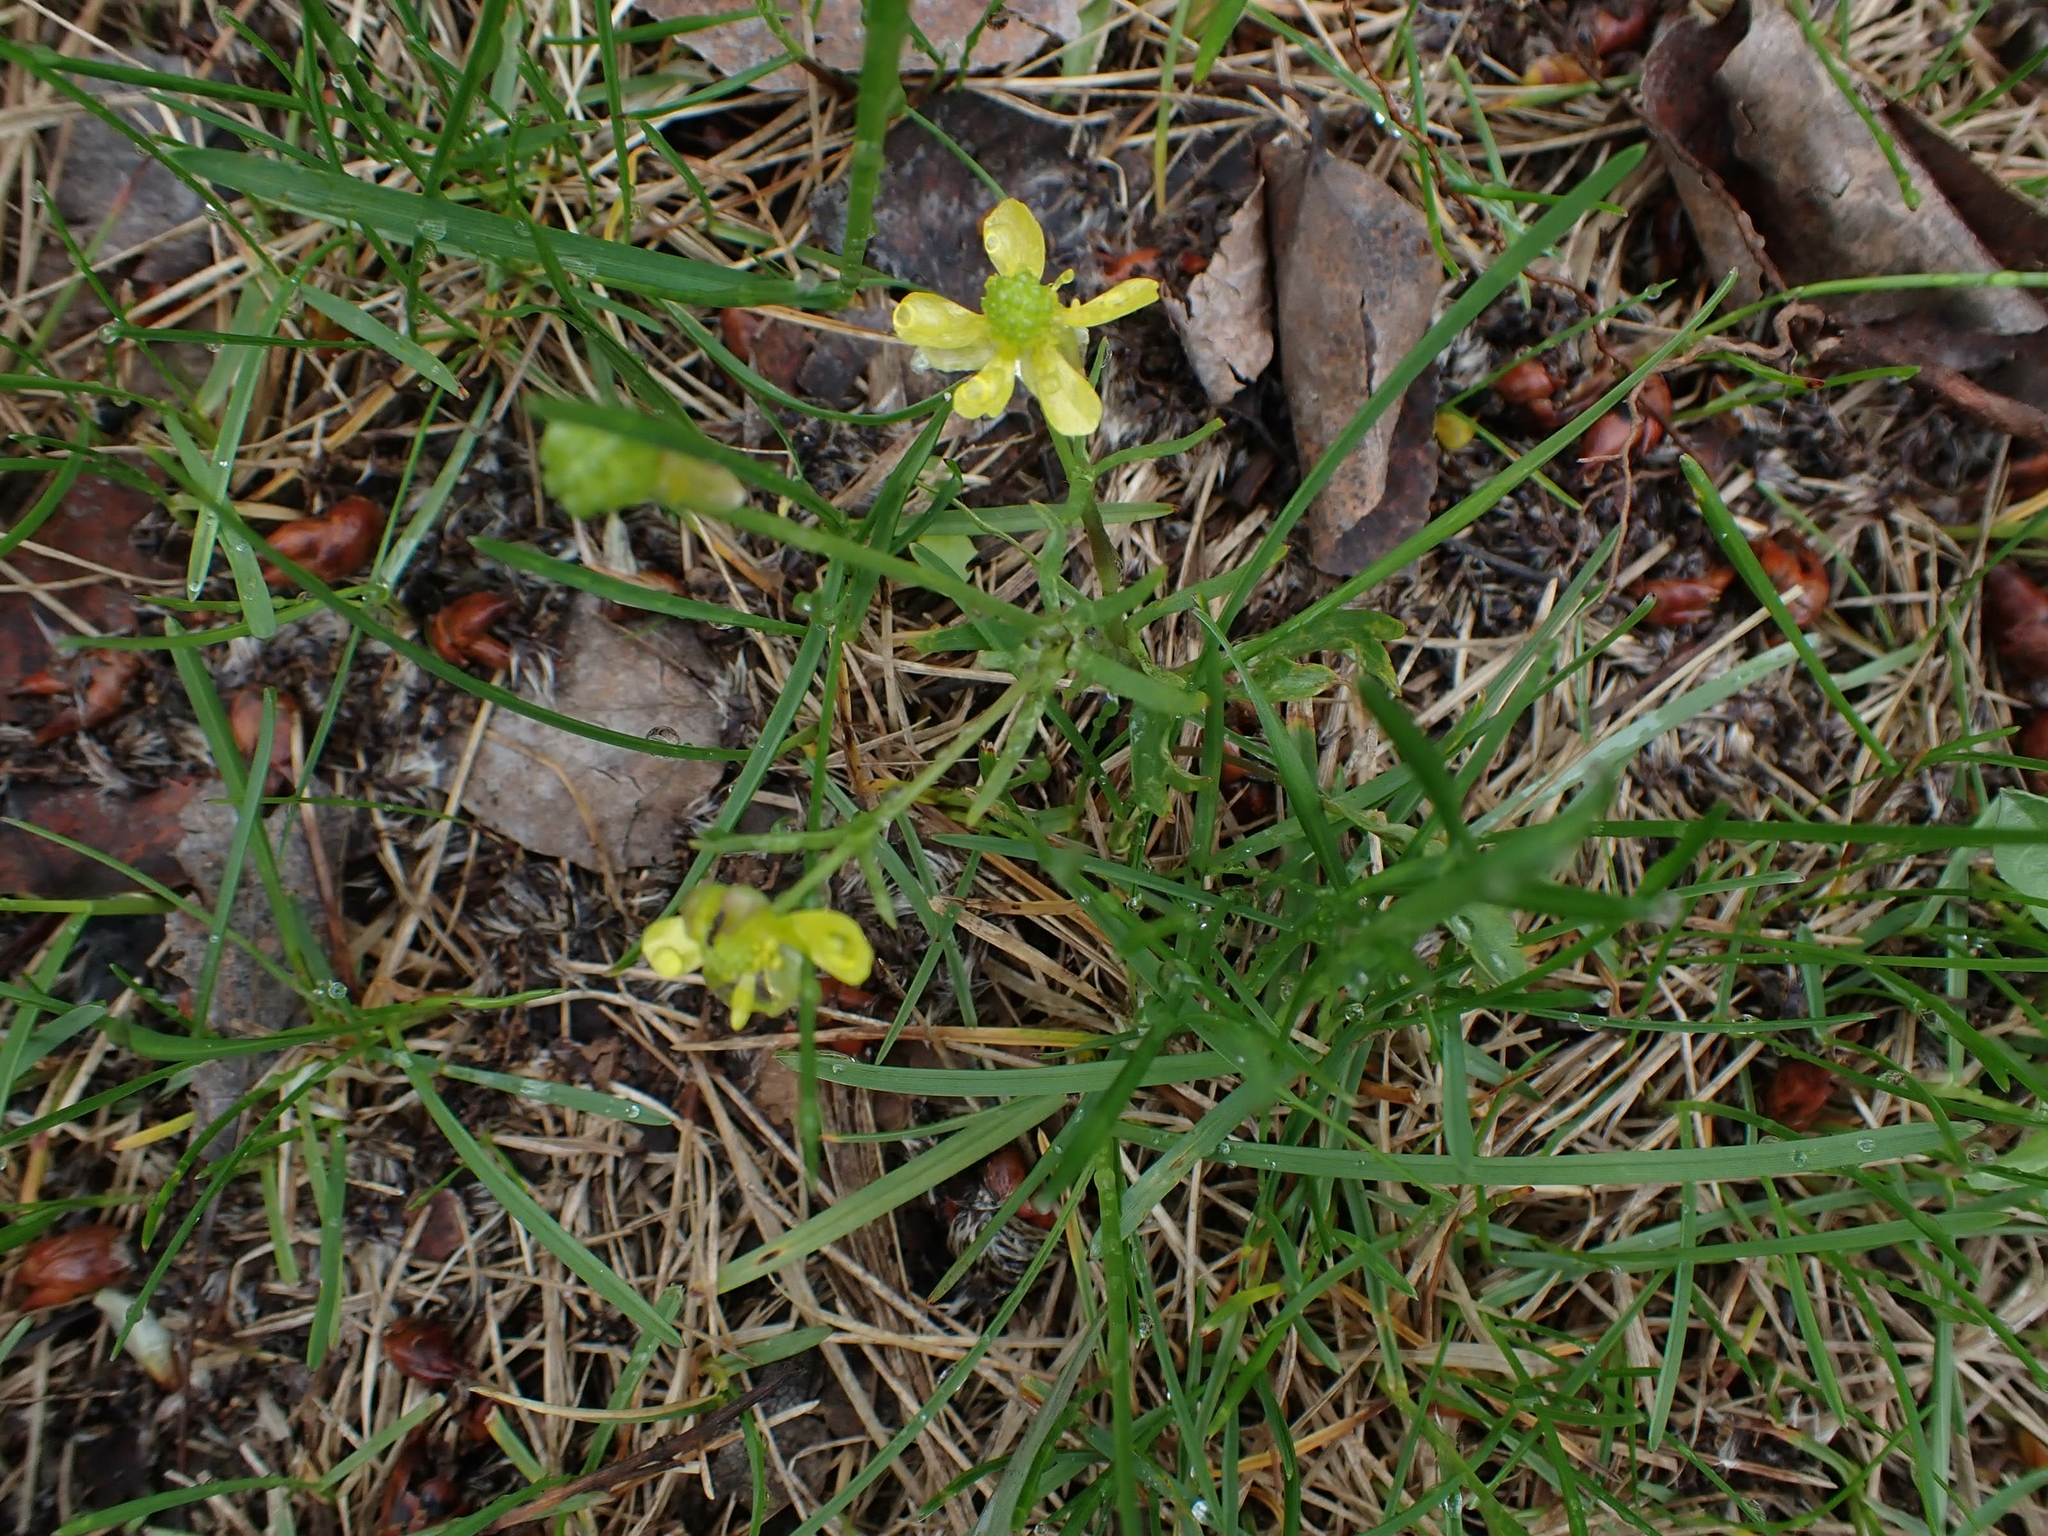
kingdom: Plantae
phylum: Tracheophyta
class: Magnoliopsida
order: Ranunculales
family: Ranunculaceae
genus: Ranunculus
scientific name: Ranunculus rhomboideus
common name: Prairie buttercup
